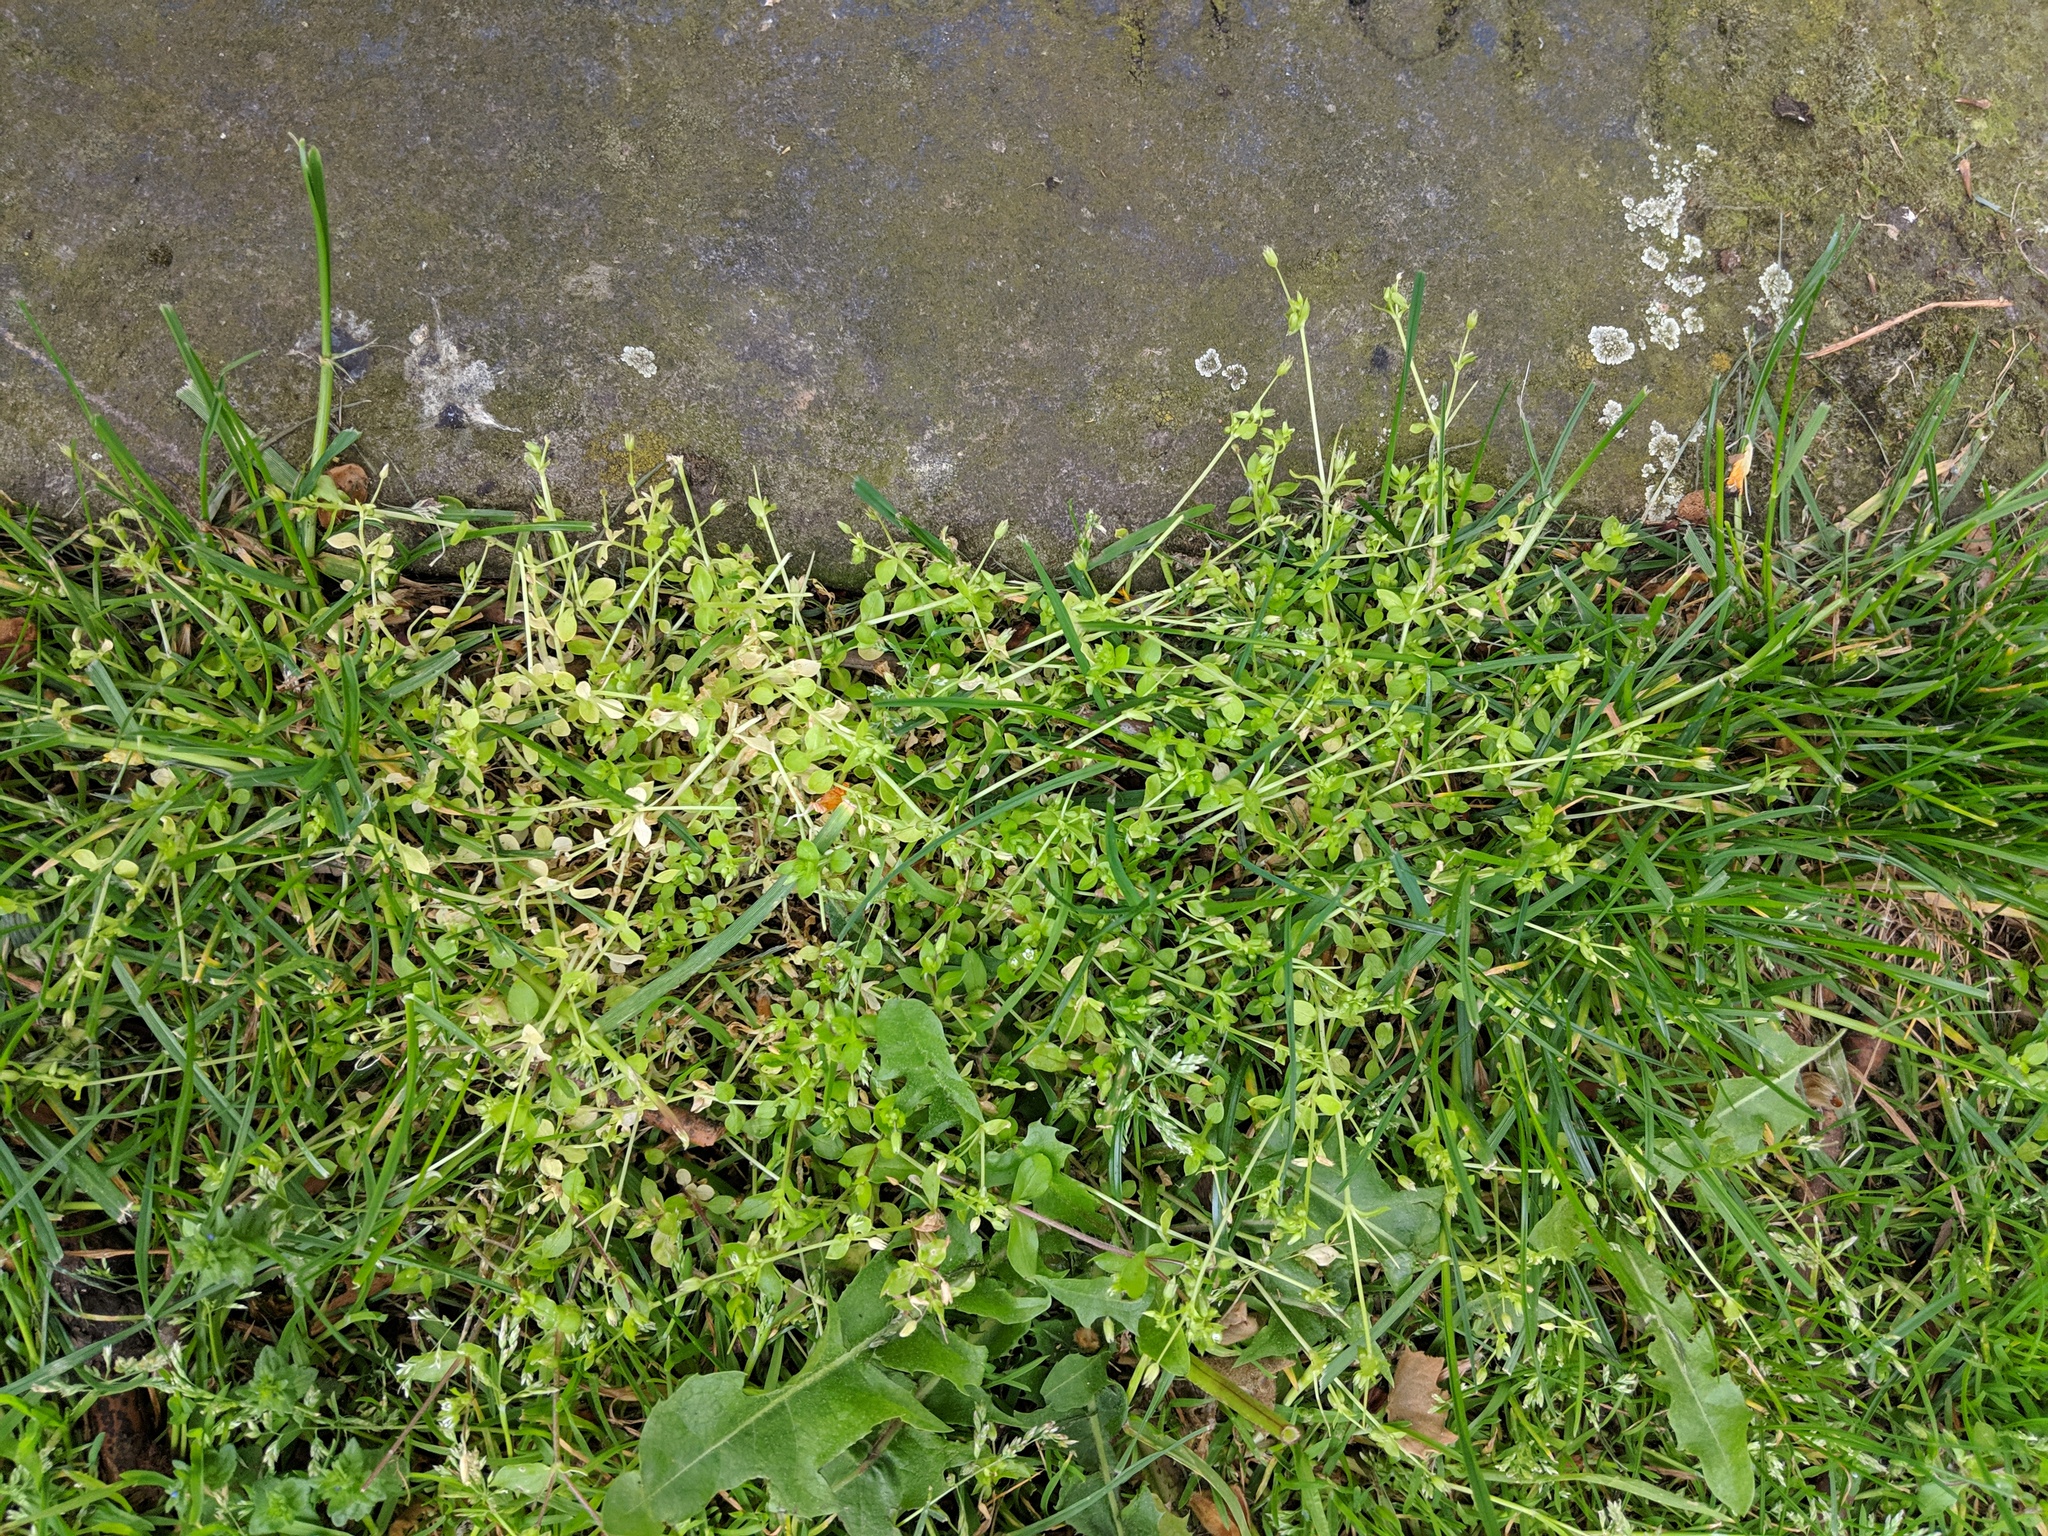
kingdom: Plantae
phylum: Tracheophyta
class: Magnoliopsida
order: Caryophyllales
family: Caryophyllaceae
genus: Stellaria
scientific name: Stellaria apetala
